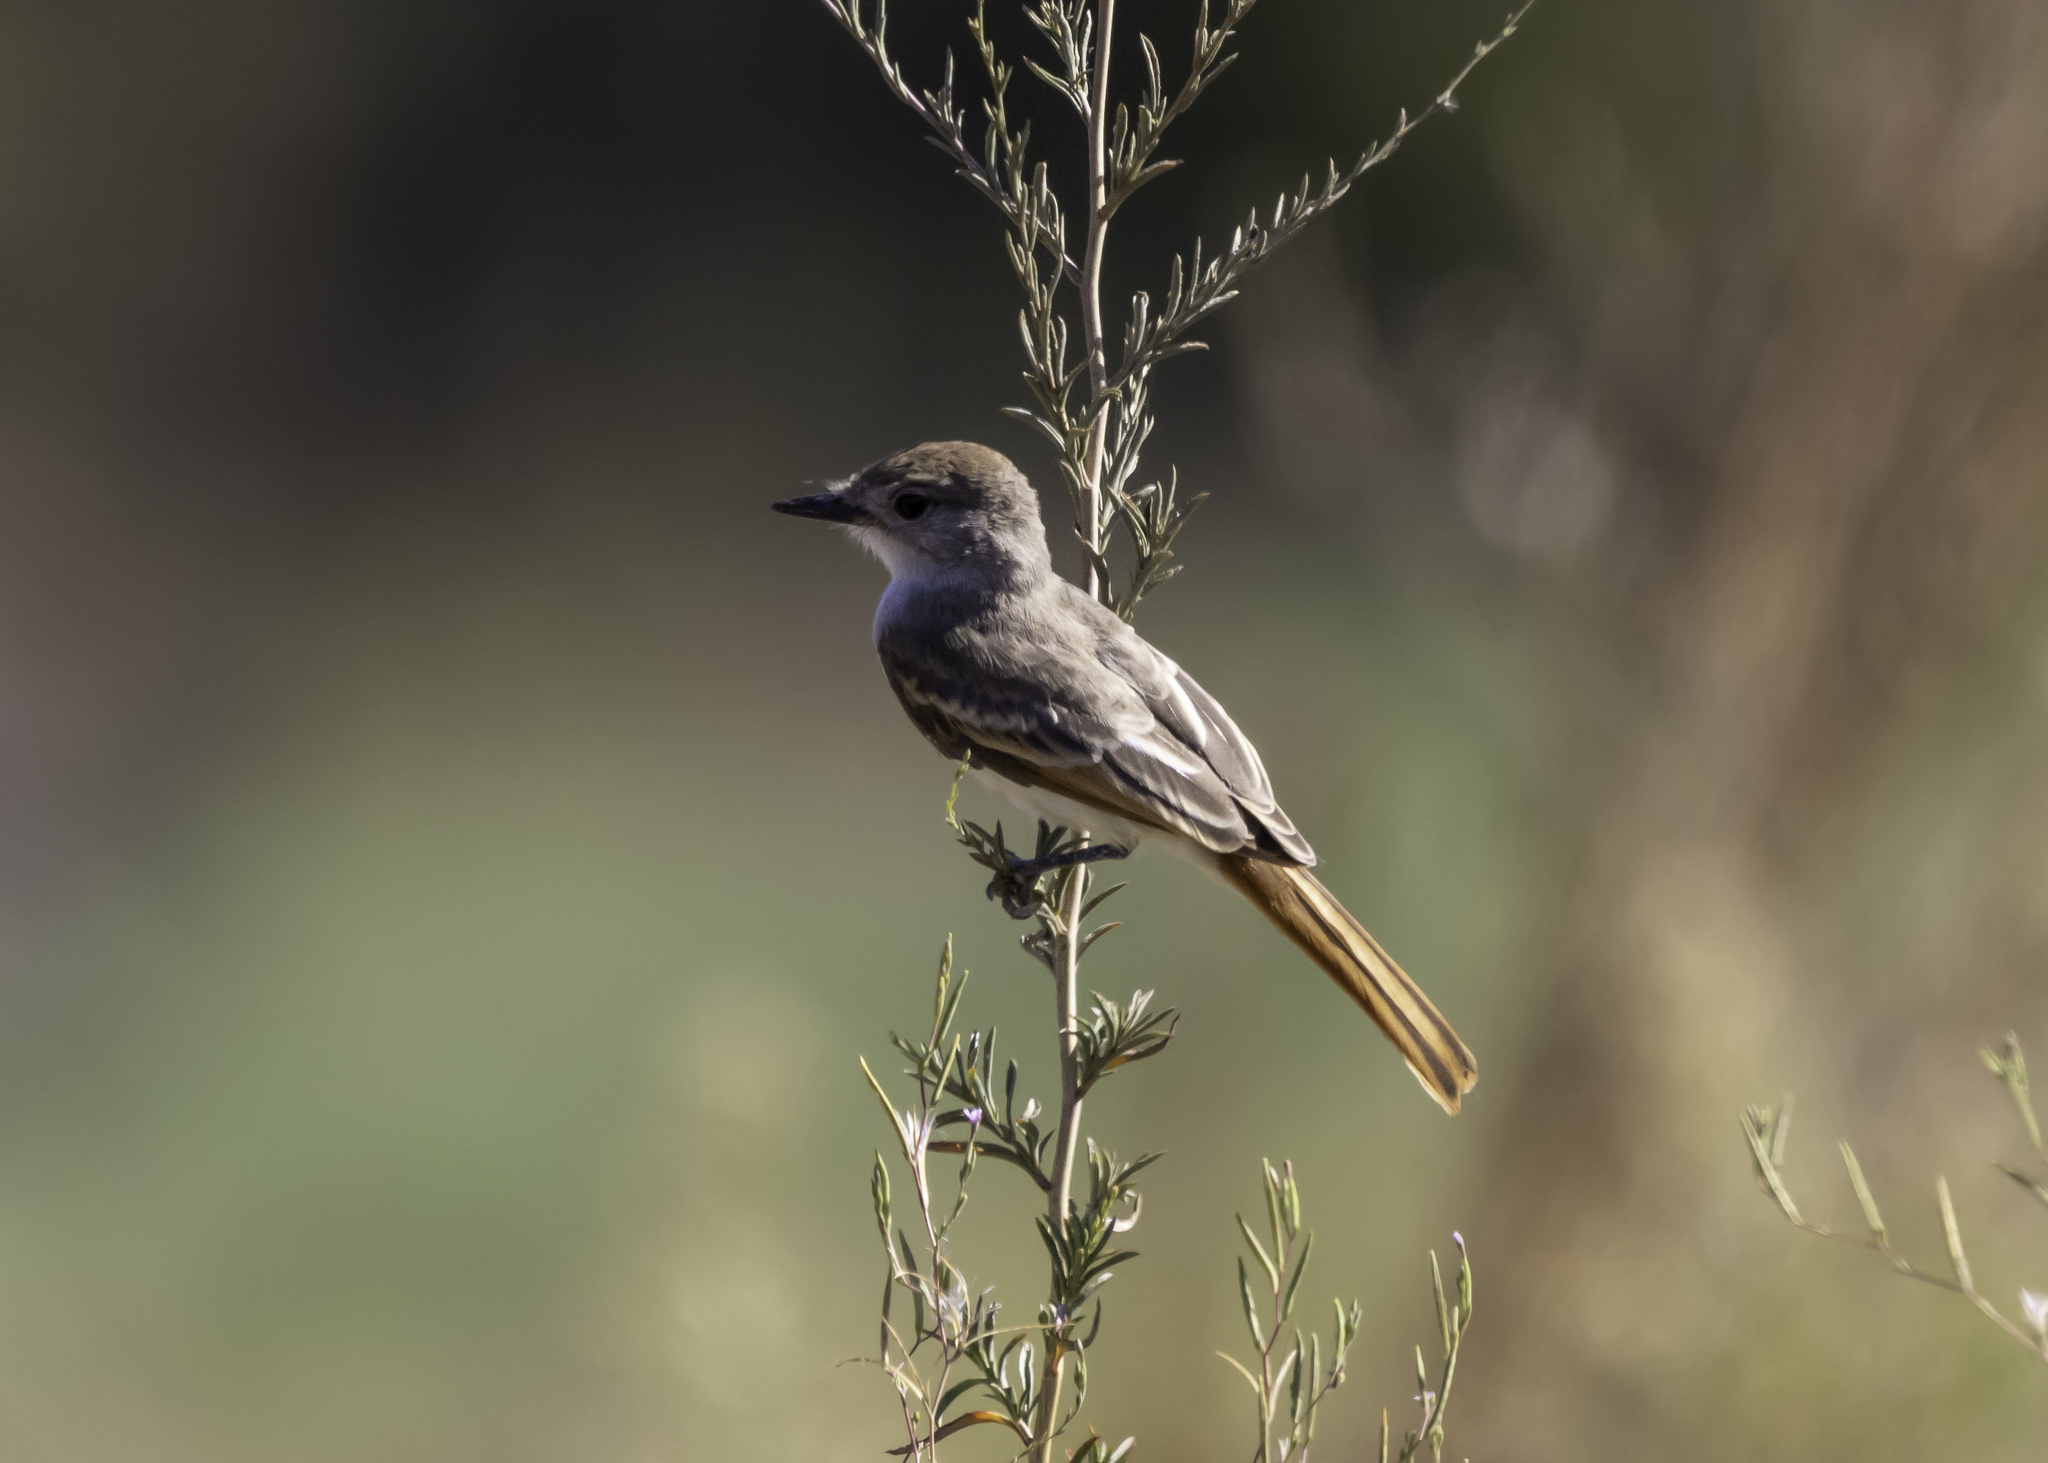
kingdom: Animalia
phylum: Chordata
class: Aves
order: Passeriformes
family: Tyrannidae
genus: Myiarchus
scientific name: Myiarchus cinerascens
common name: Ash-throated flycatcher
